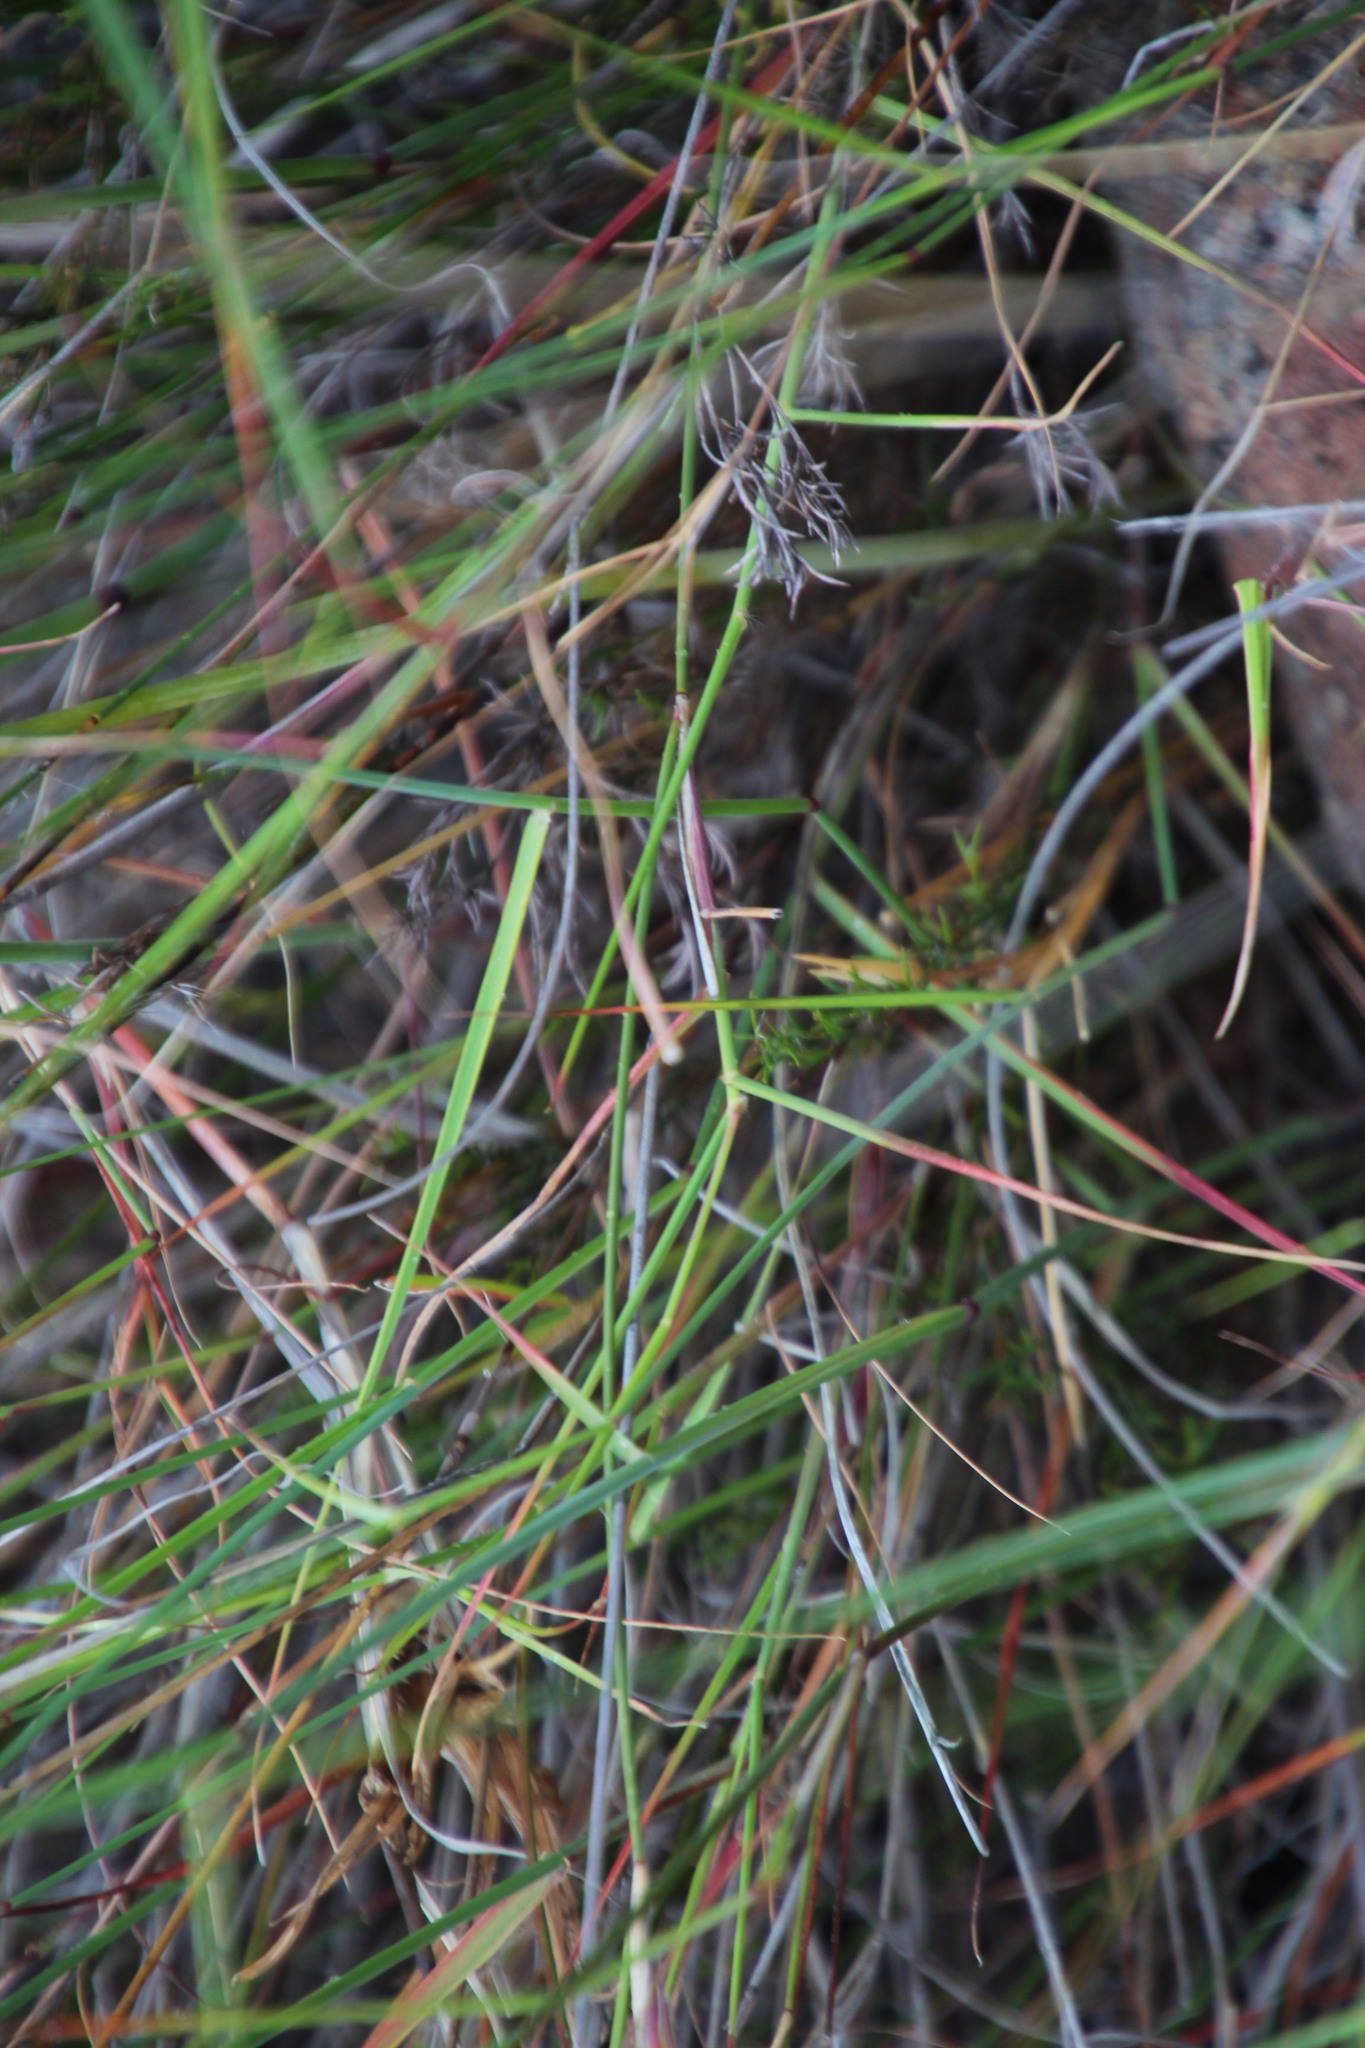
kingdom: Plantae
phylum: Tracheophyta
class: Liliopsida
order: Poales
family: Poaceae
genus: Ehrharta
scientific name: Ehrharta thunbergii
